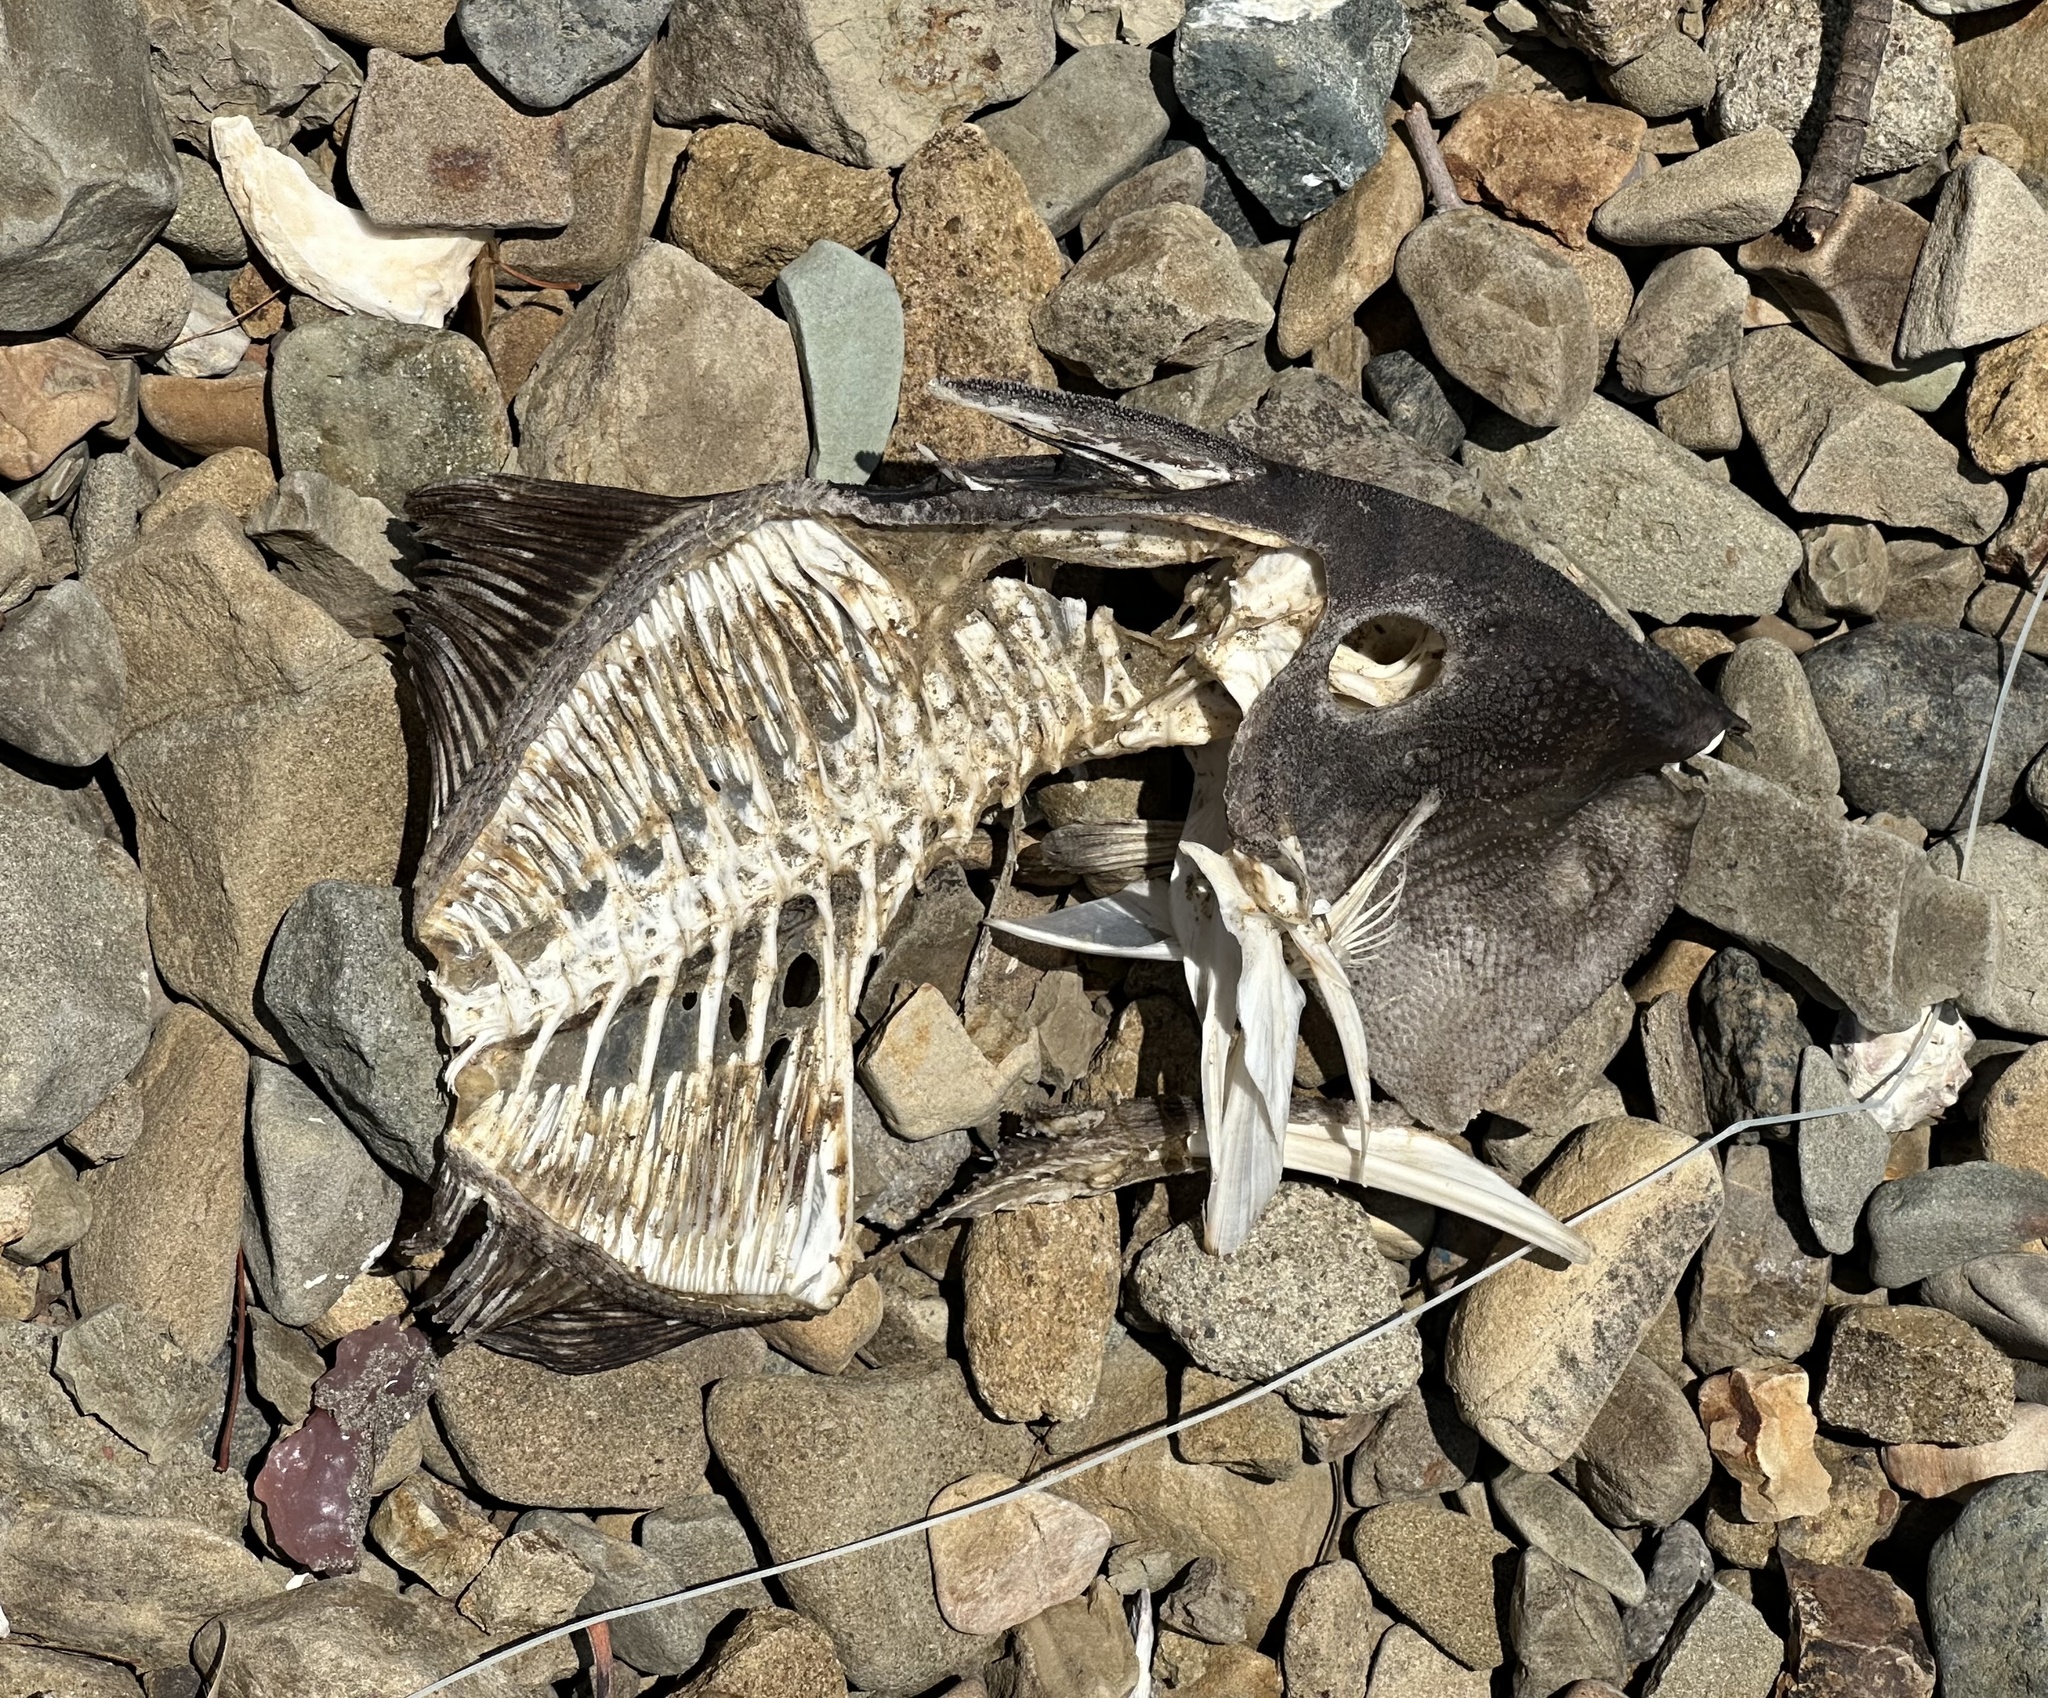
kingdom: Animalia
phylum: Chordata
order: Tetraodontiformes
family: Balistidae
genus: Balistes
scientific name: Balistes polylepis
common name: Finescale triggerfish
